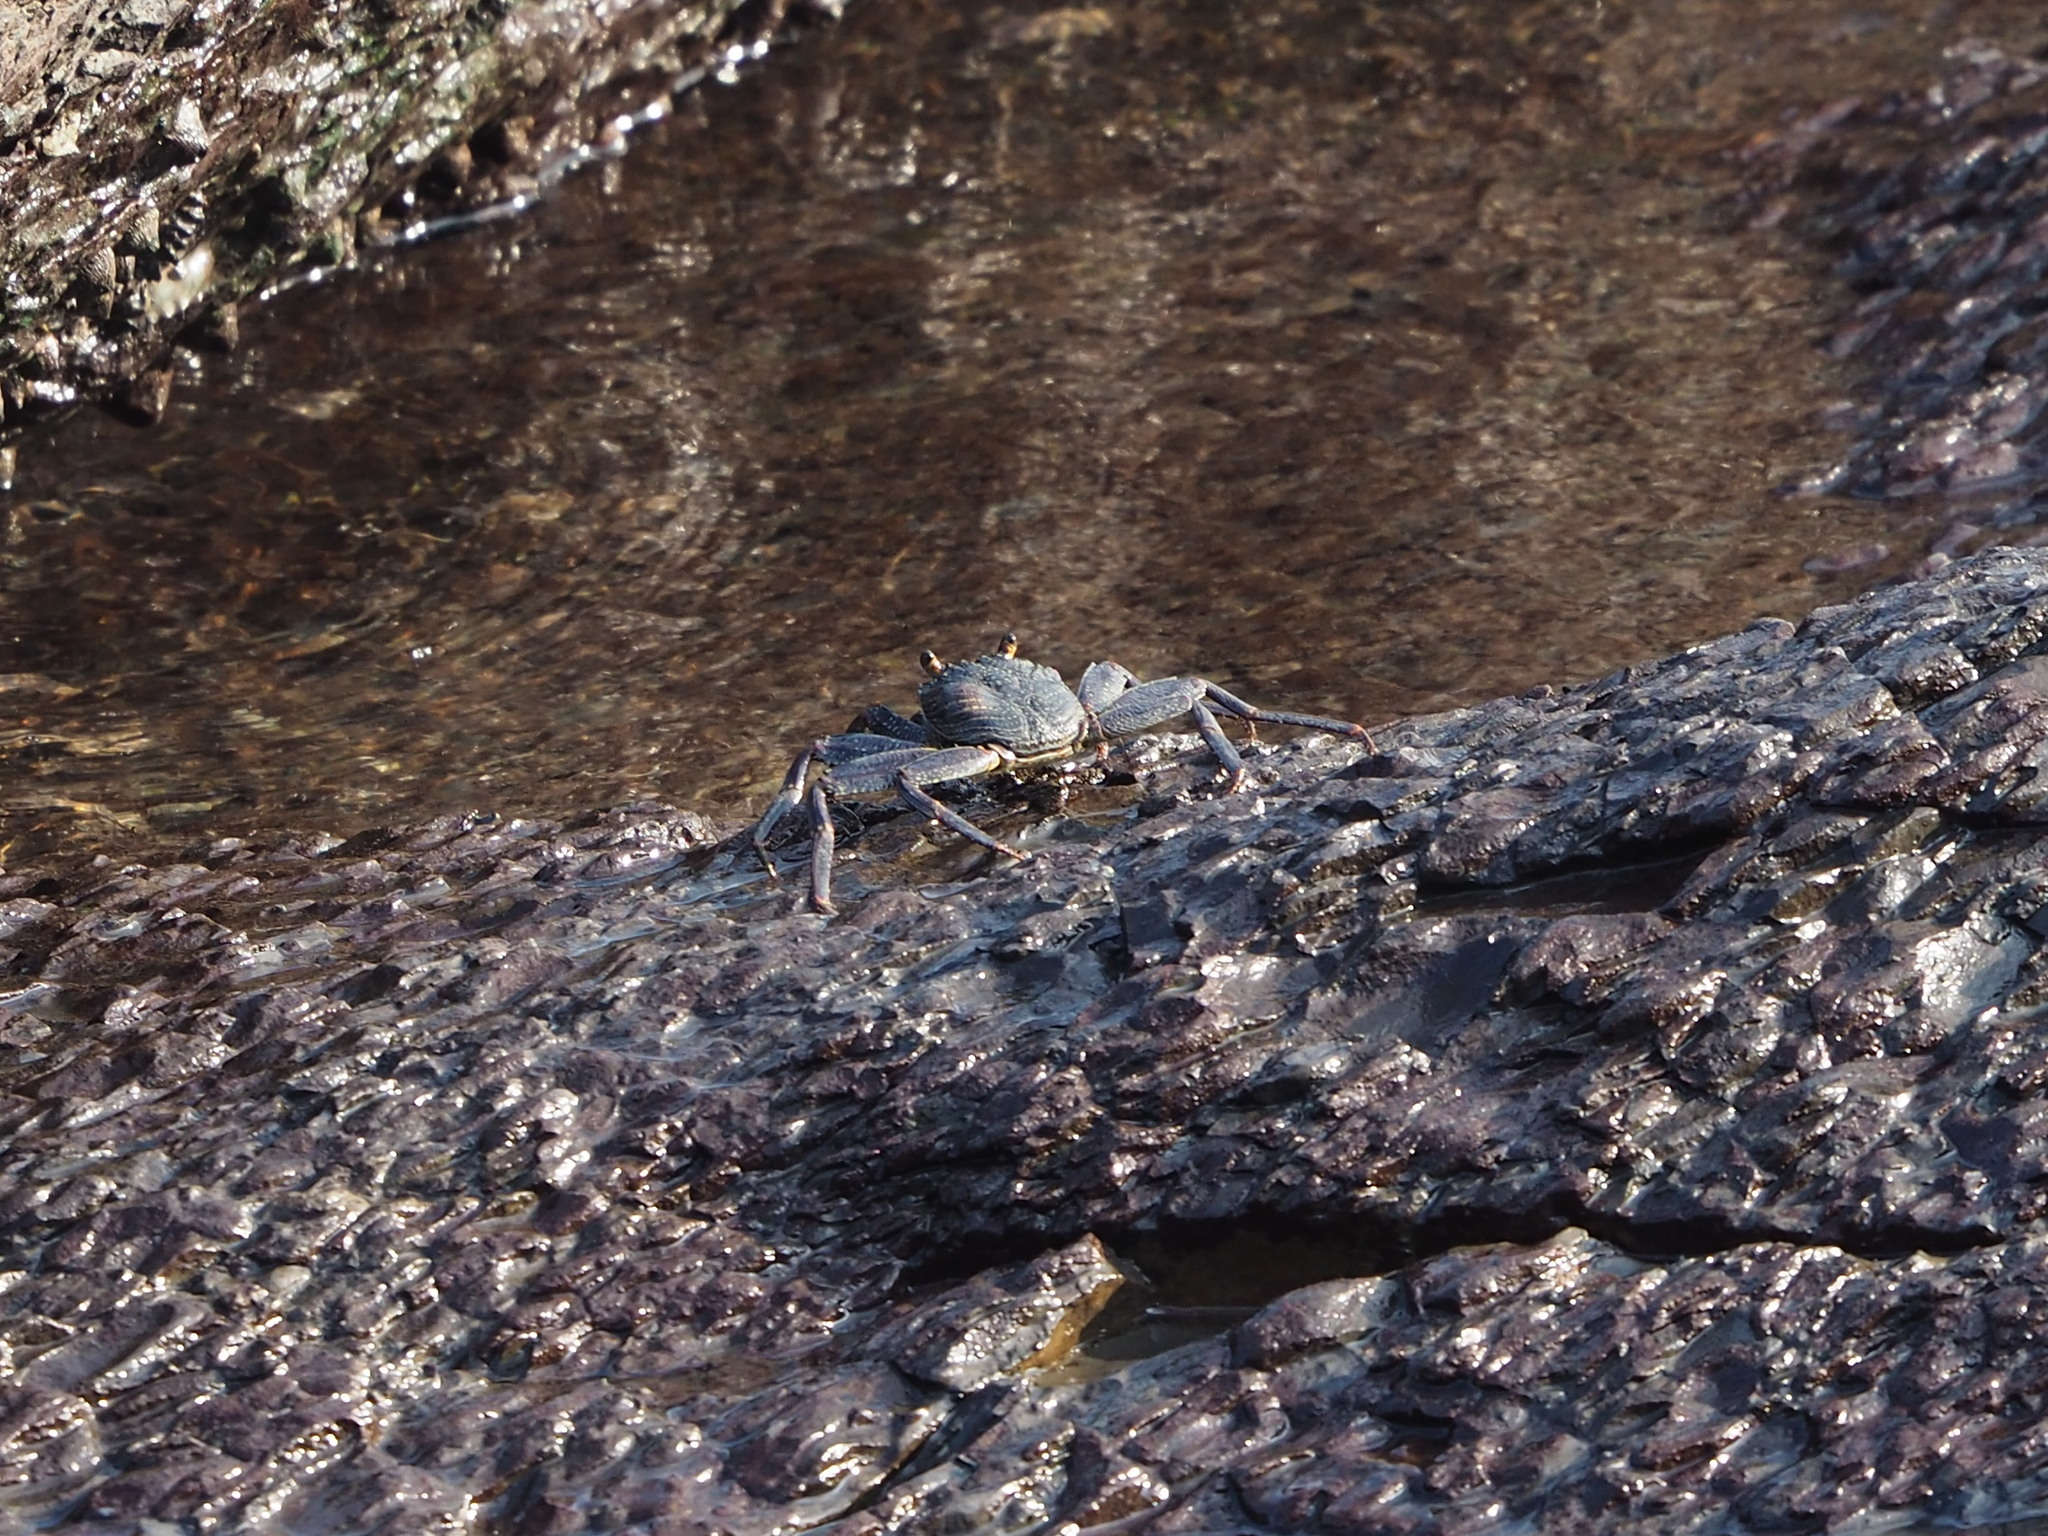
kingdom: Animalia
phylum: Arthropoda
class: Malacostraca
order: Decapoda
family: Grapsidae
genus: Grapsus
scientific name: Grapsus tenuicrustatus
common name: Natal lightfoot crab
